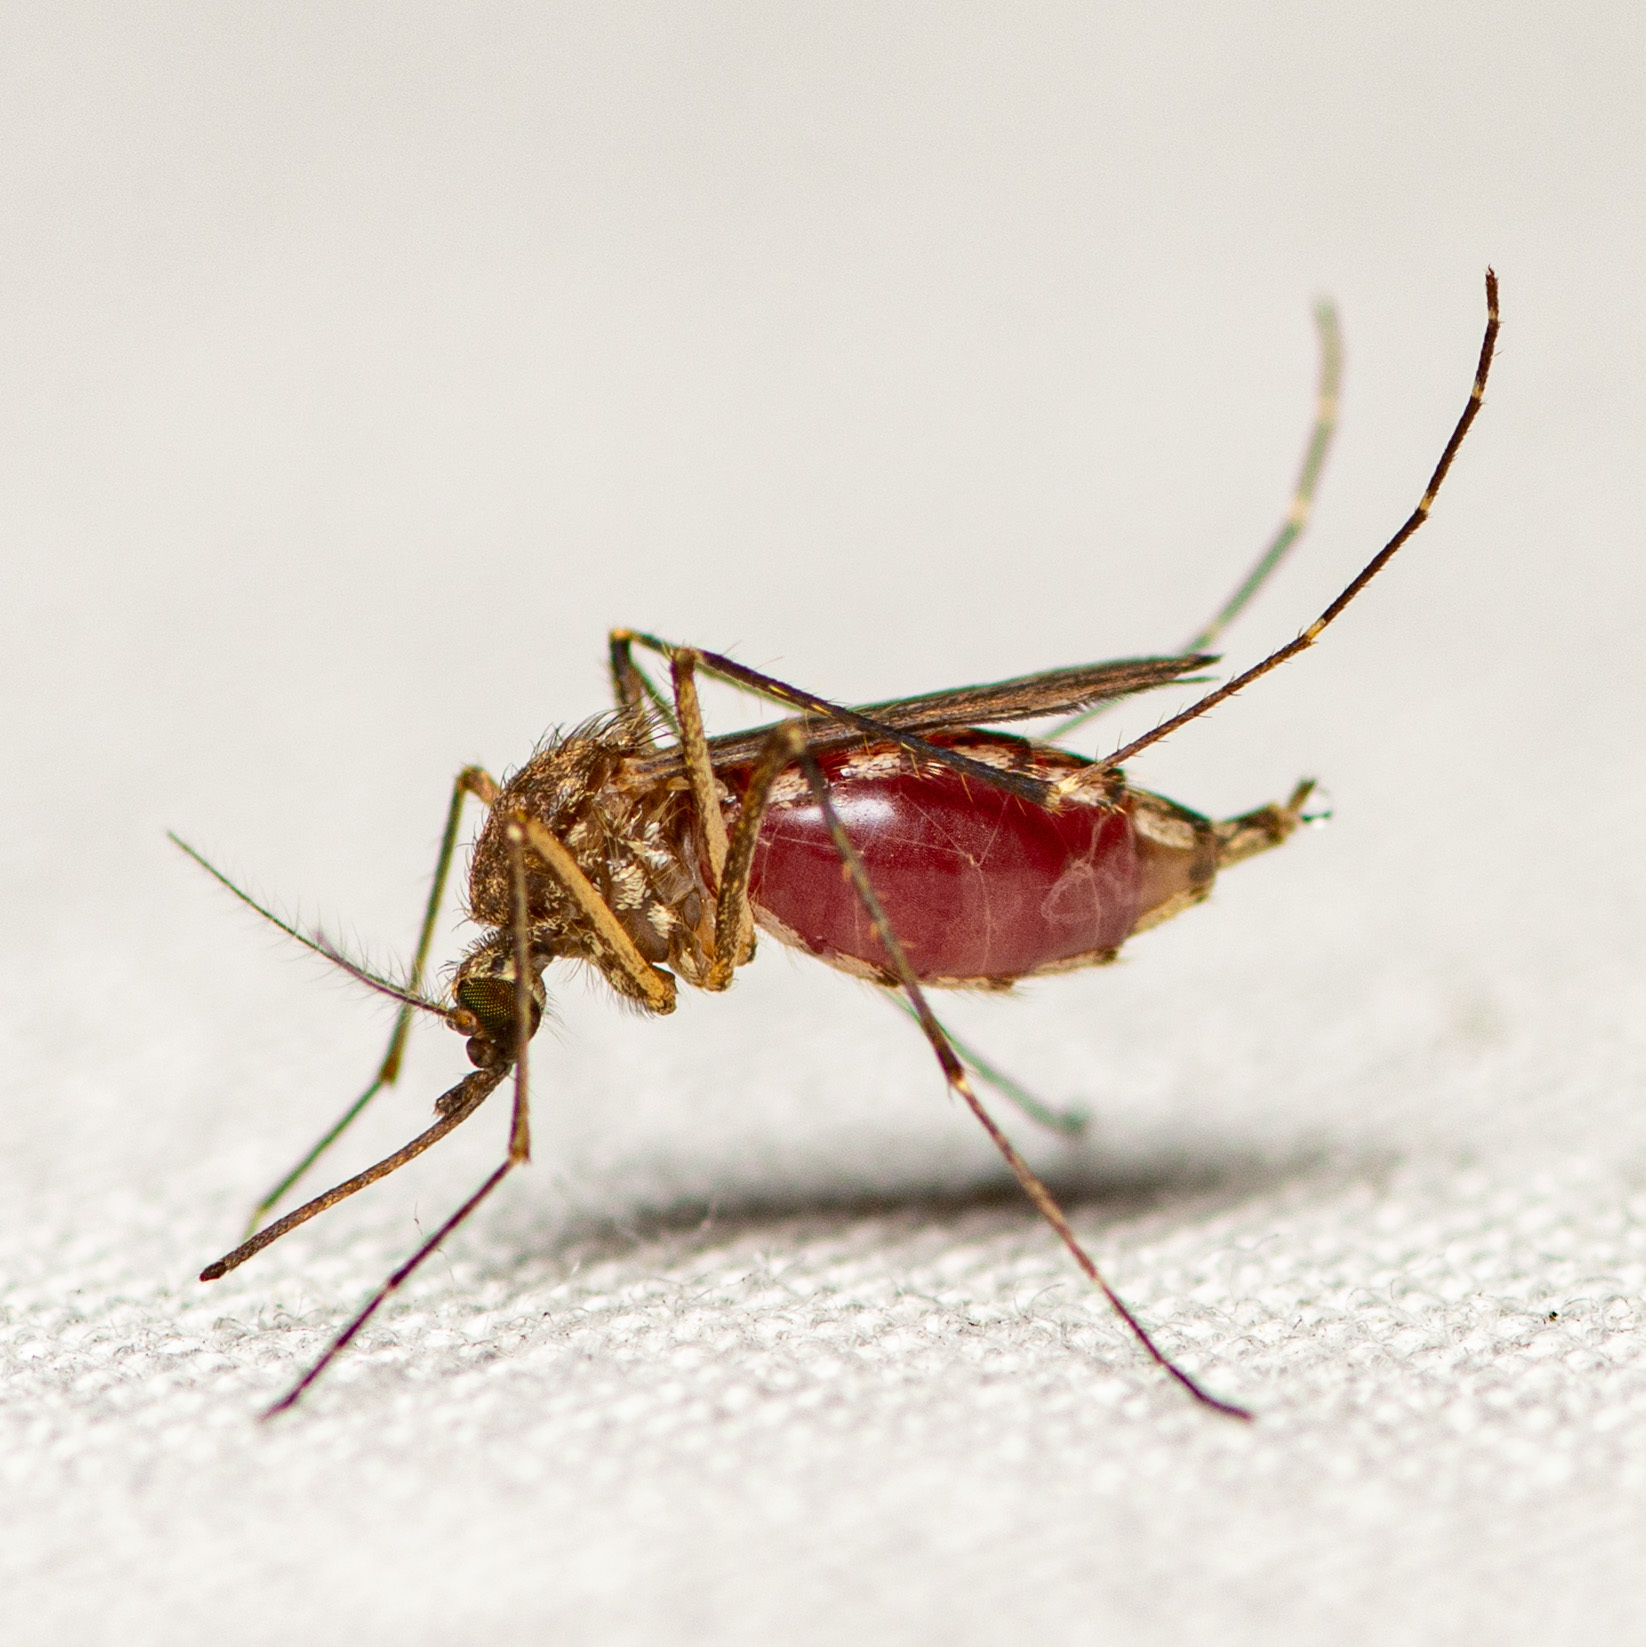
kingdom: Animalia
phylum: Arthropoda
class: Insecta
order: Diptera
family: Culicidae
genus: Aedes
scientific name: Aedes vexans
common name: Inland floodwater mosquito
